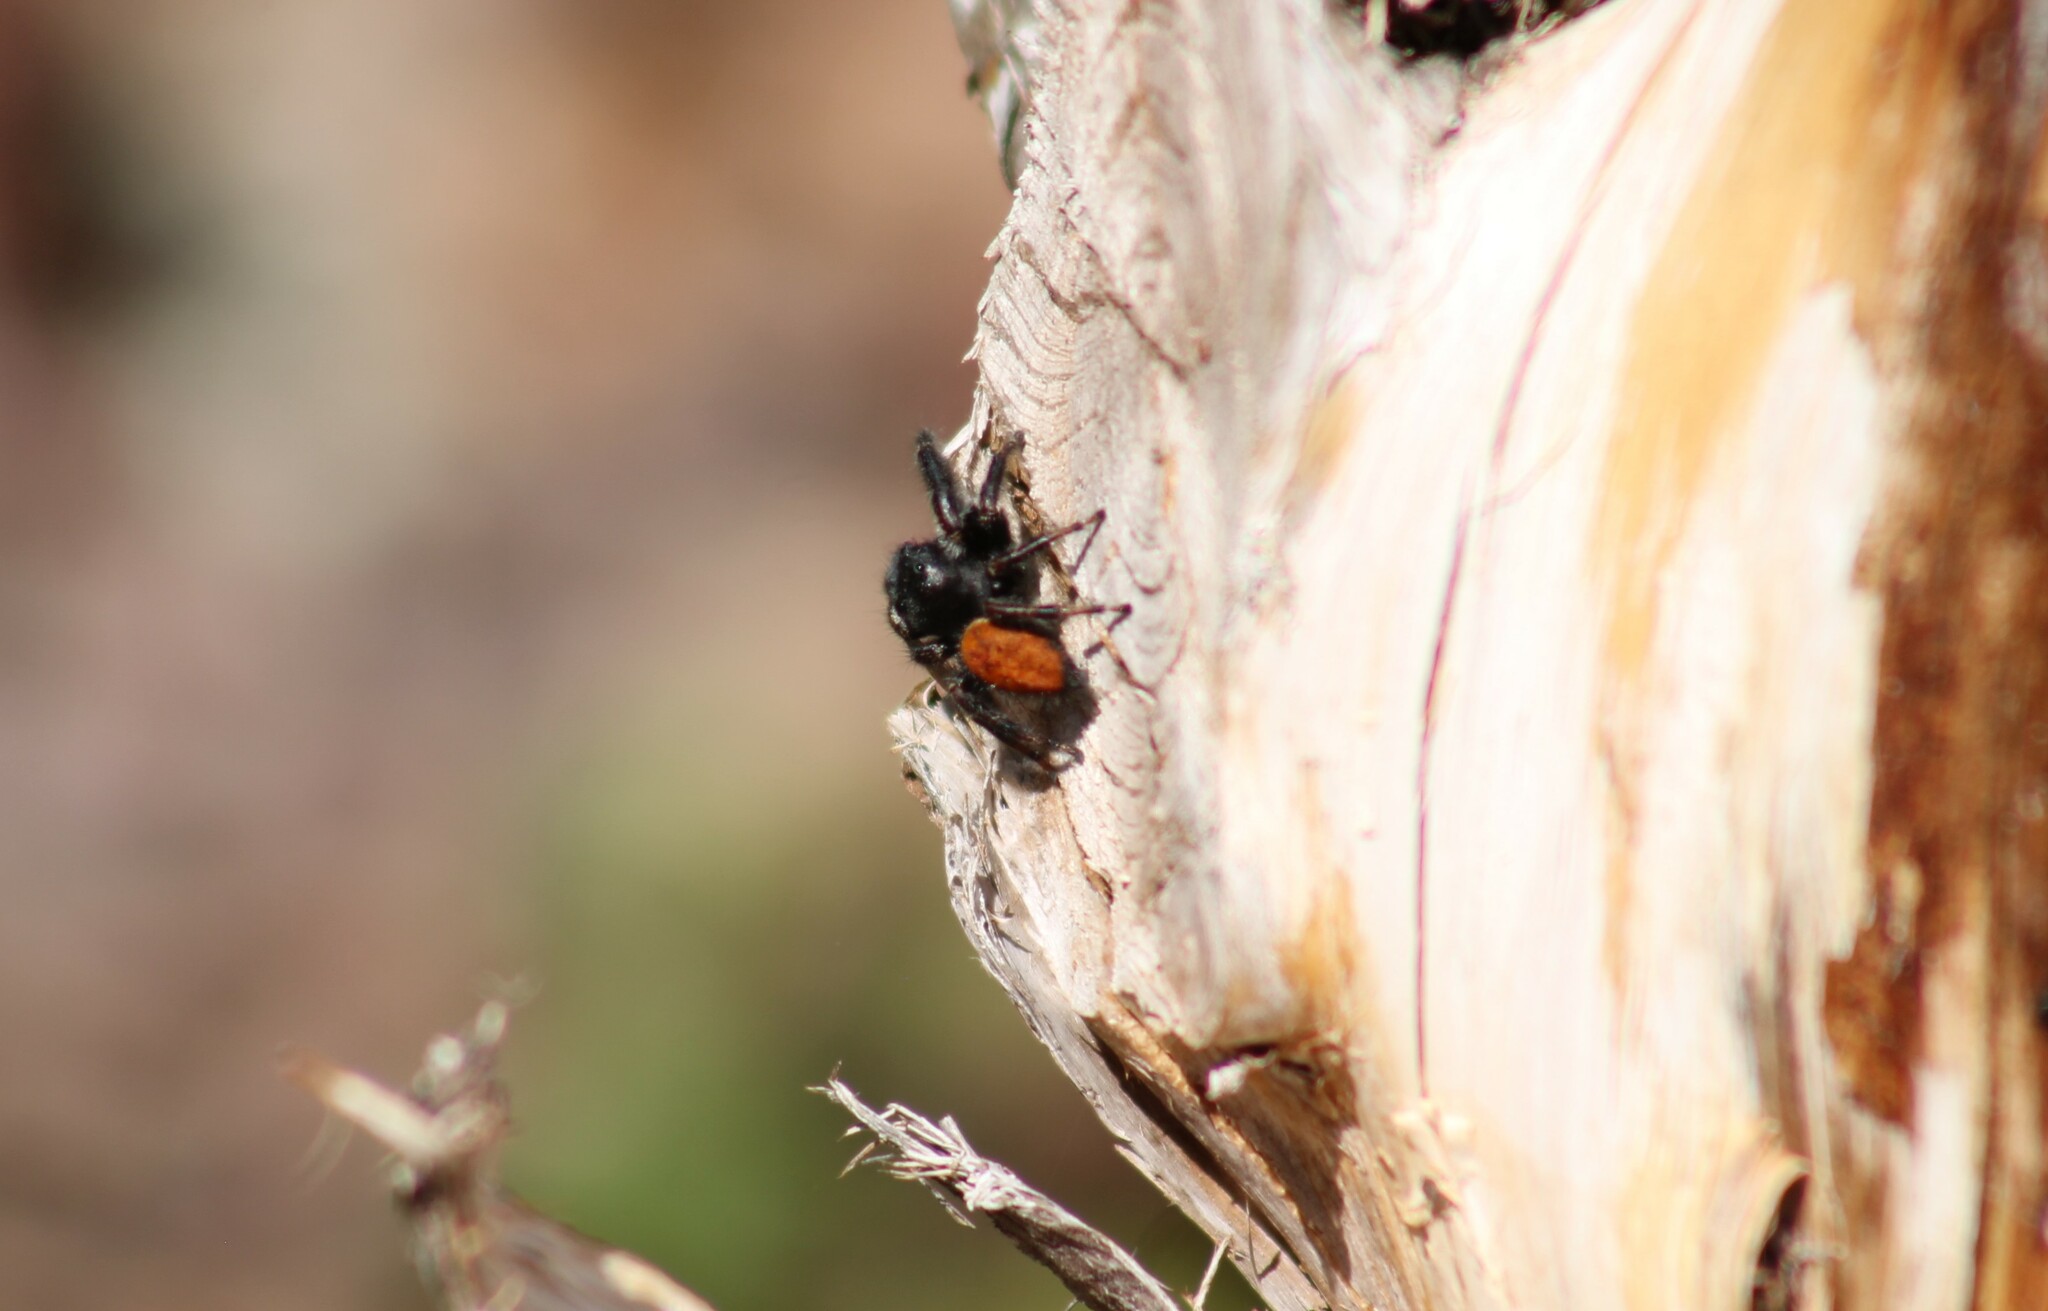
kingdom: Animalia
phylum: Arthropoda
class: Arachnida
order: Araneae
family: Salticidae
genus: Phidippus
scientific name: Phidippus princeps
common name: Grayish jumping spider
